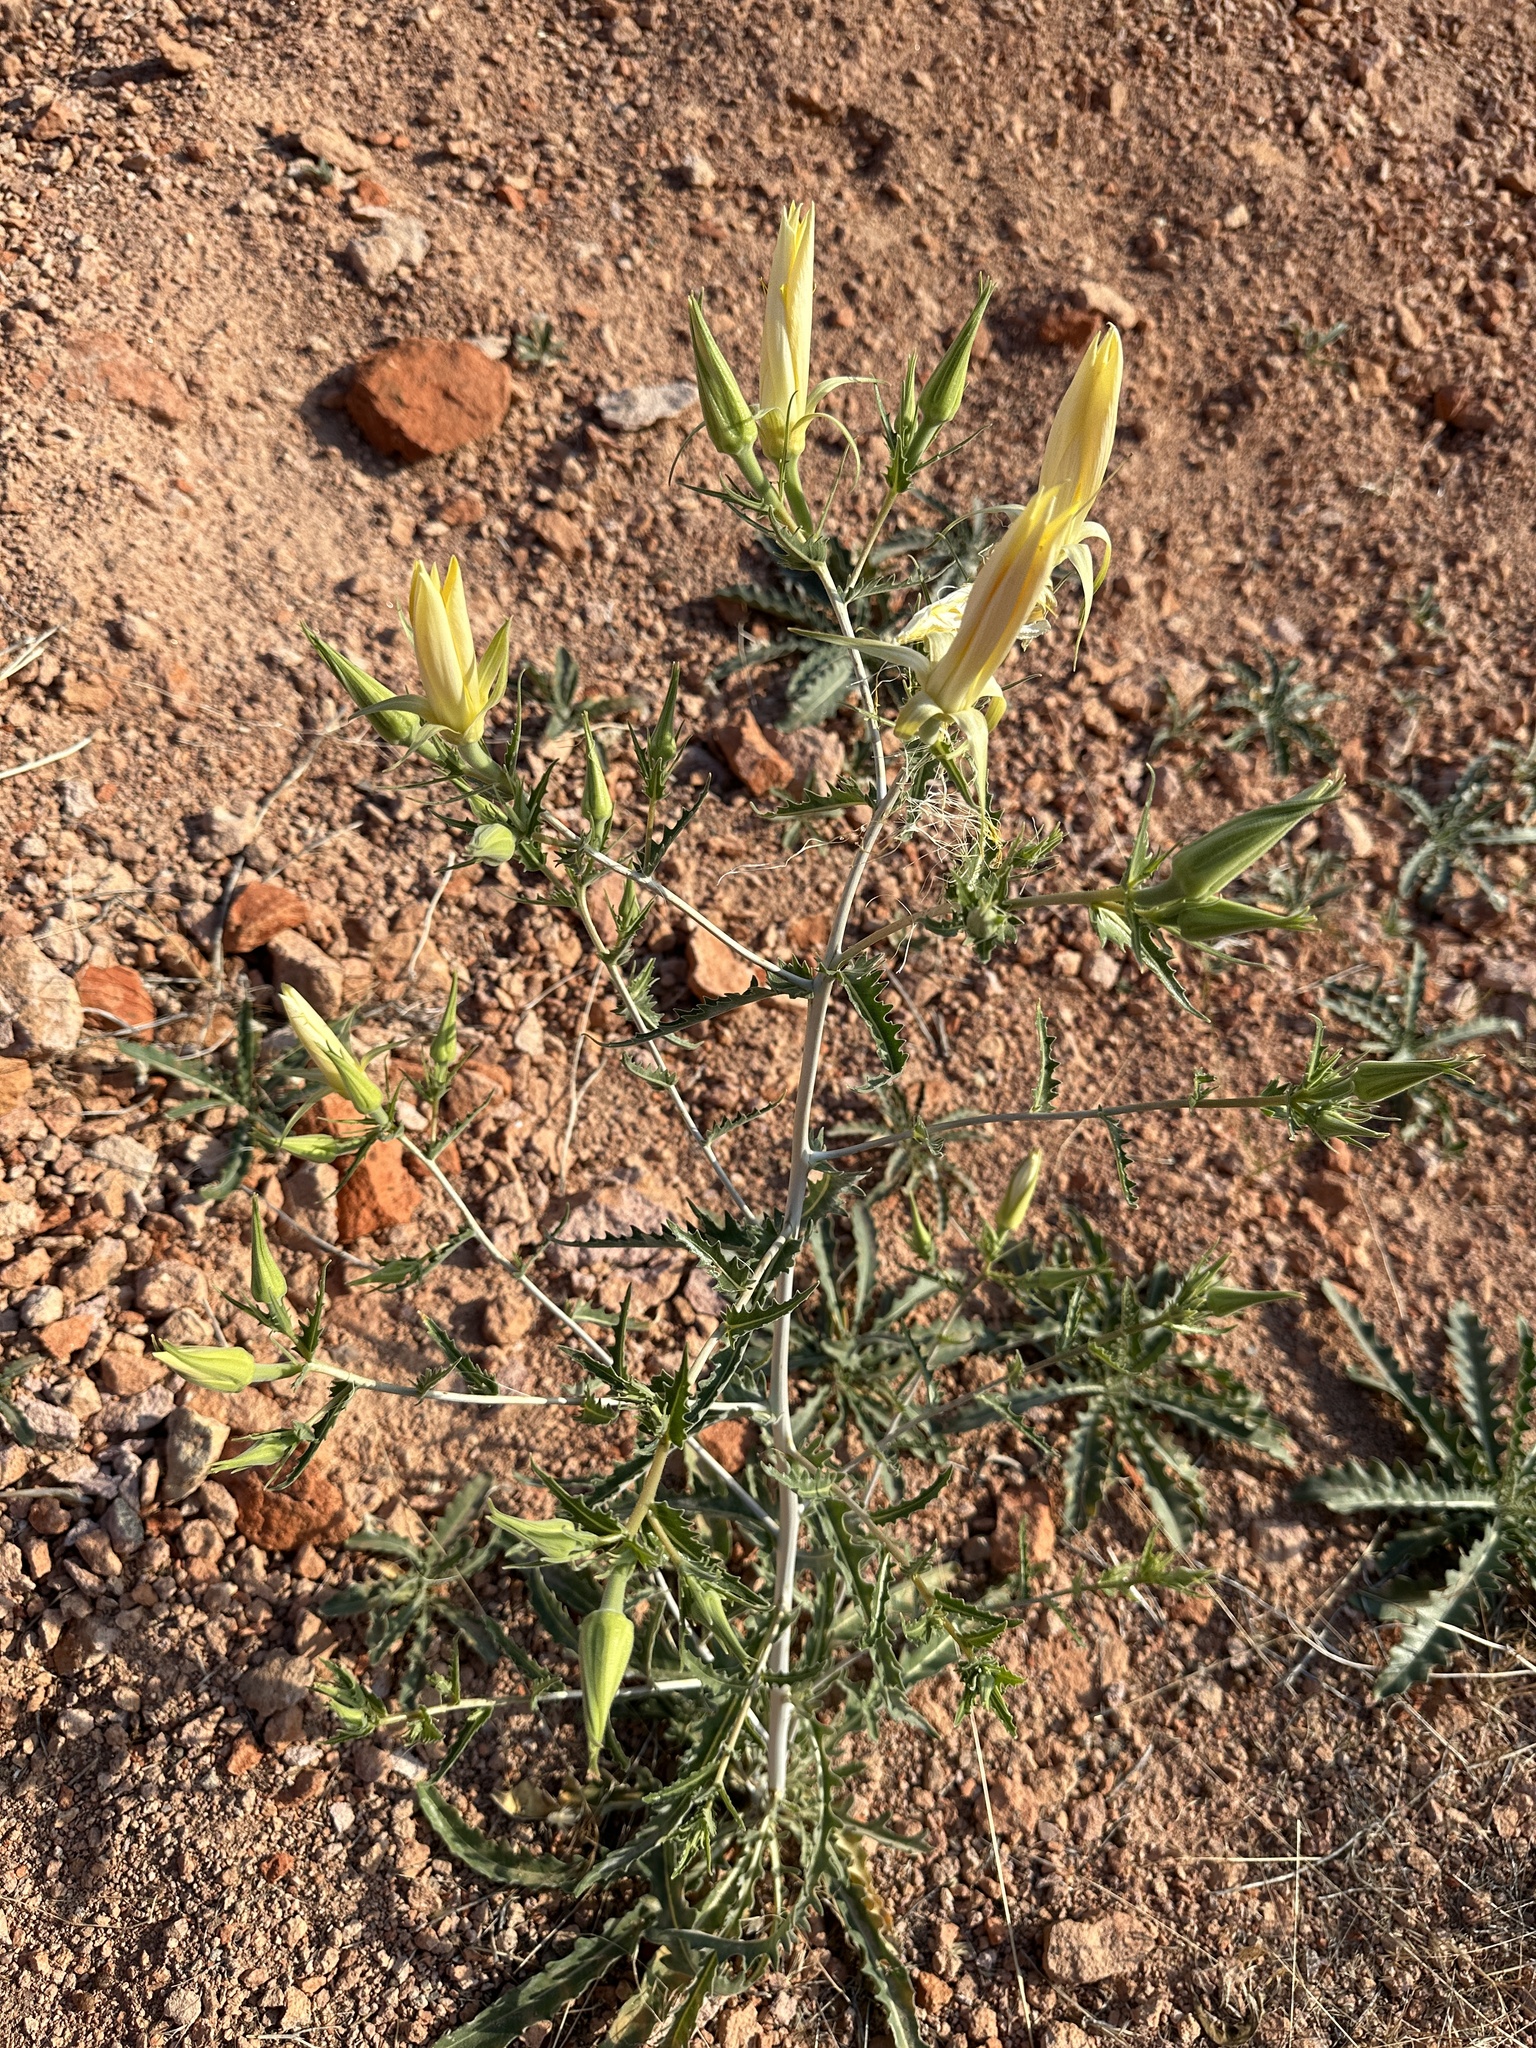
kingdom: Plantae
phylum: Tracheophyta
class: Magnoliopsida
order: Cornales
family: Loasaceae
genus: Mentzelia
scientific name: Mentzelia laevicaulis
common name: Smooth-stem blazingstar
